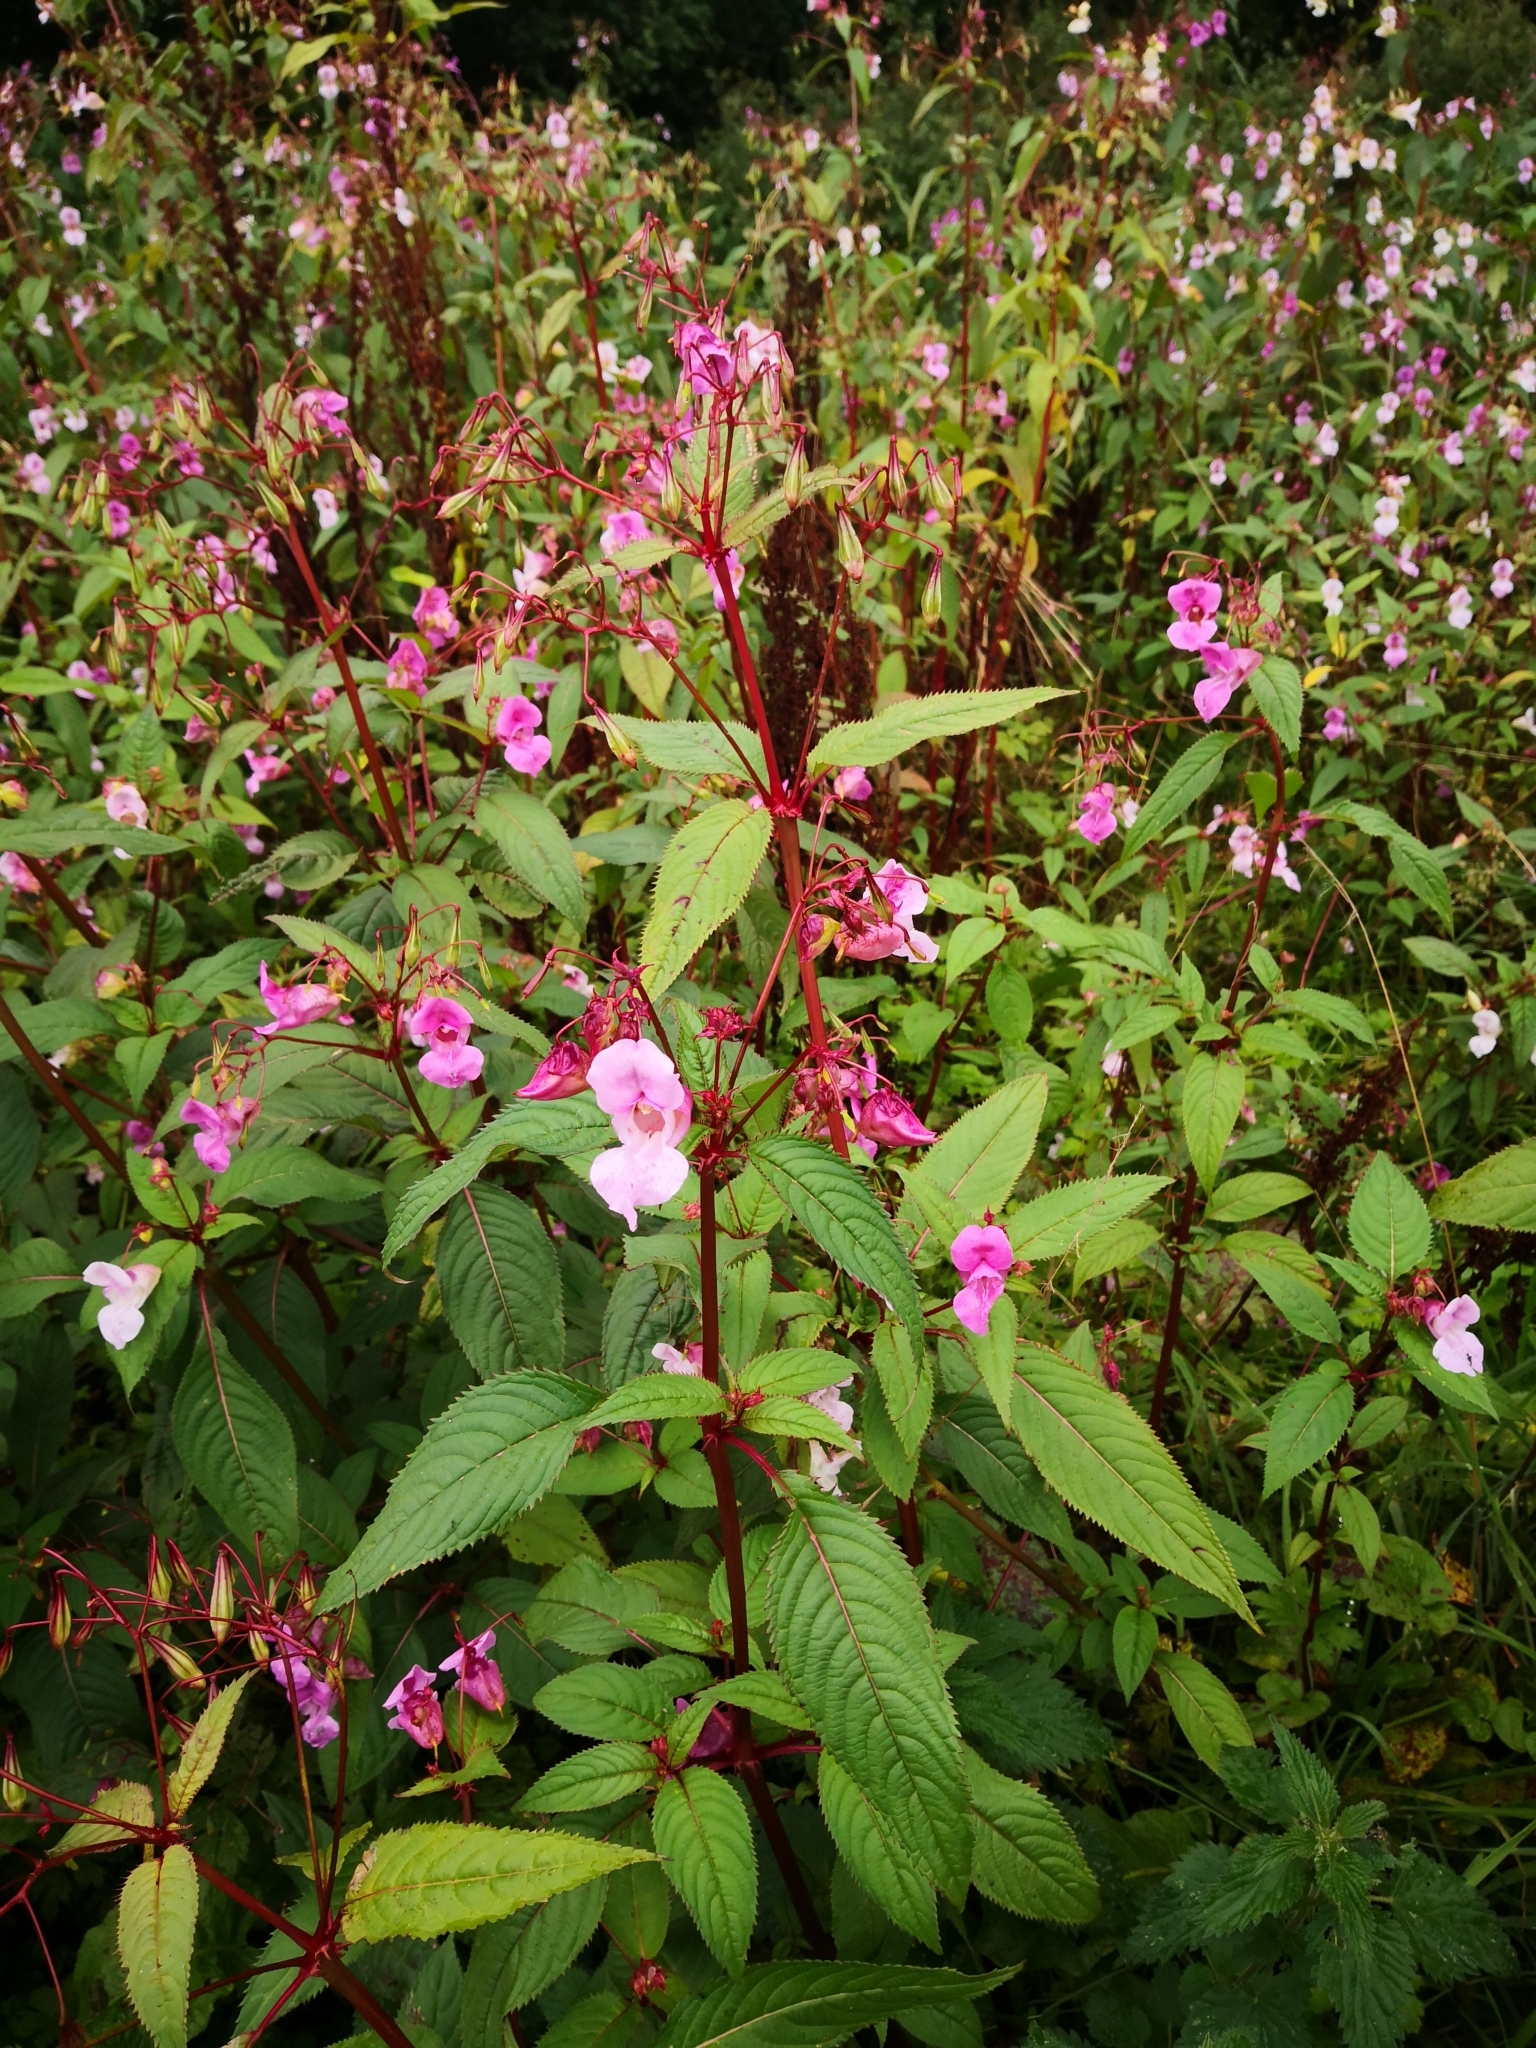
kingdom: Plantae
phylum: Tracheophyta
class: Magnoliopsida
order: Ericales
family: Balsaminaceae
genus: Impatiens
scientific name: Impatiens glandulifera
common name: Himalayan balsam
